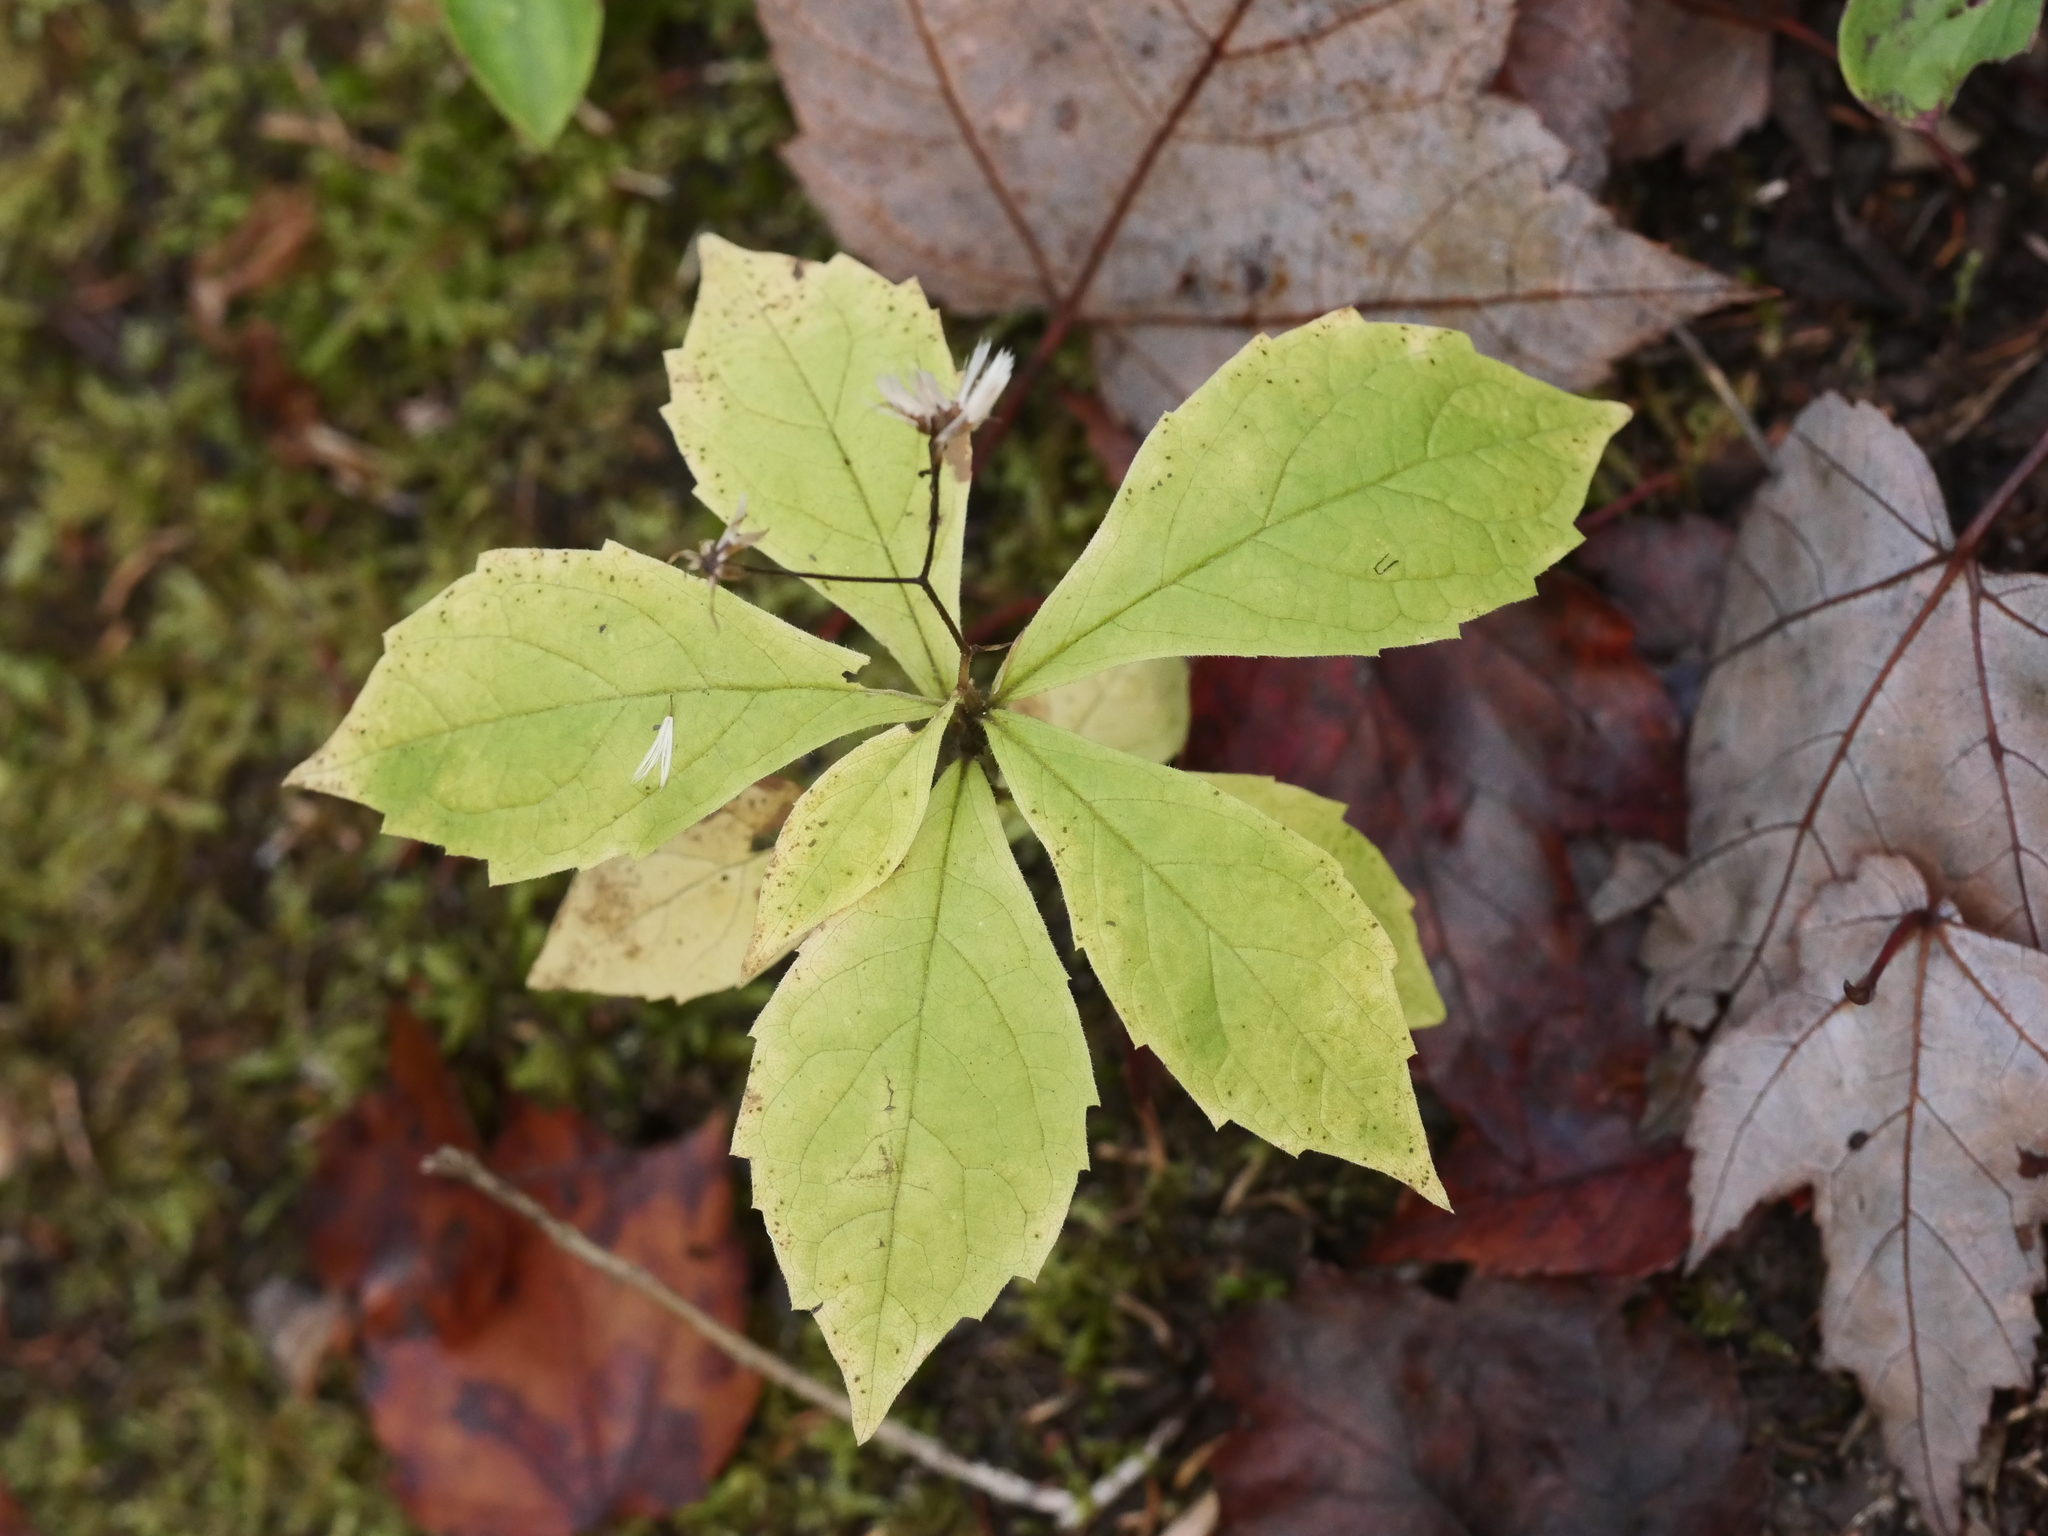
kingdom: Plantae
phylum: Tracheophyta
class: Magnoliopsida
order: Asterales
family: Asteraceae
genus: Oclemena
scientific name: Oclemena acuminata
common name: Mountain aster
